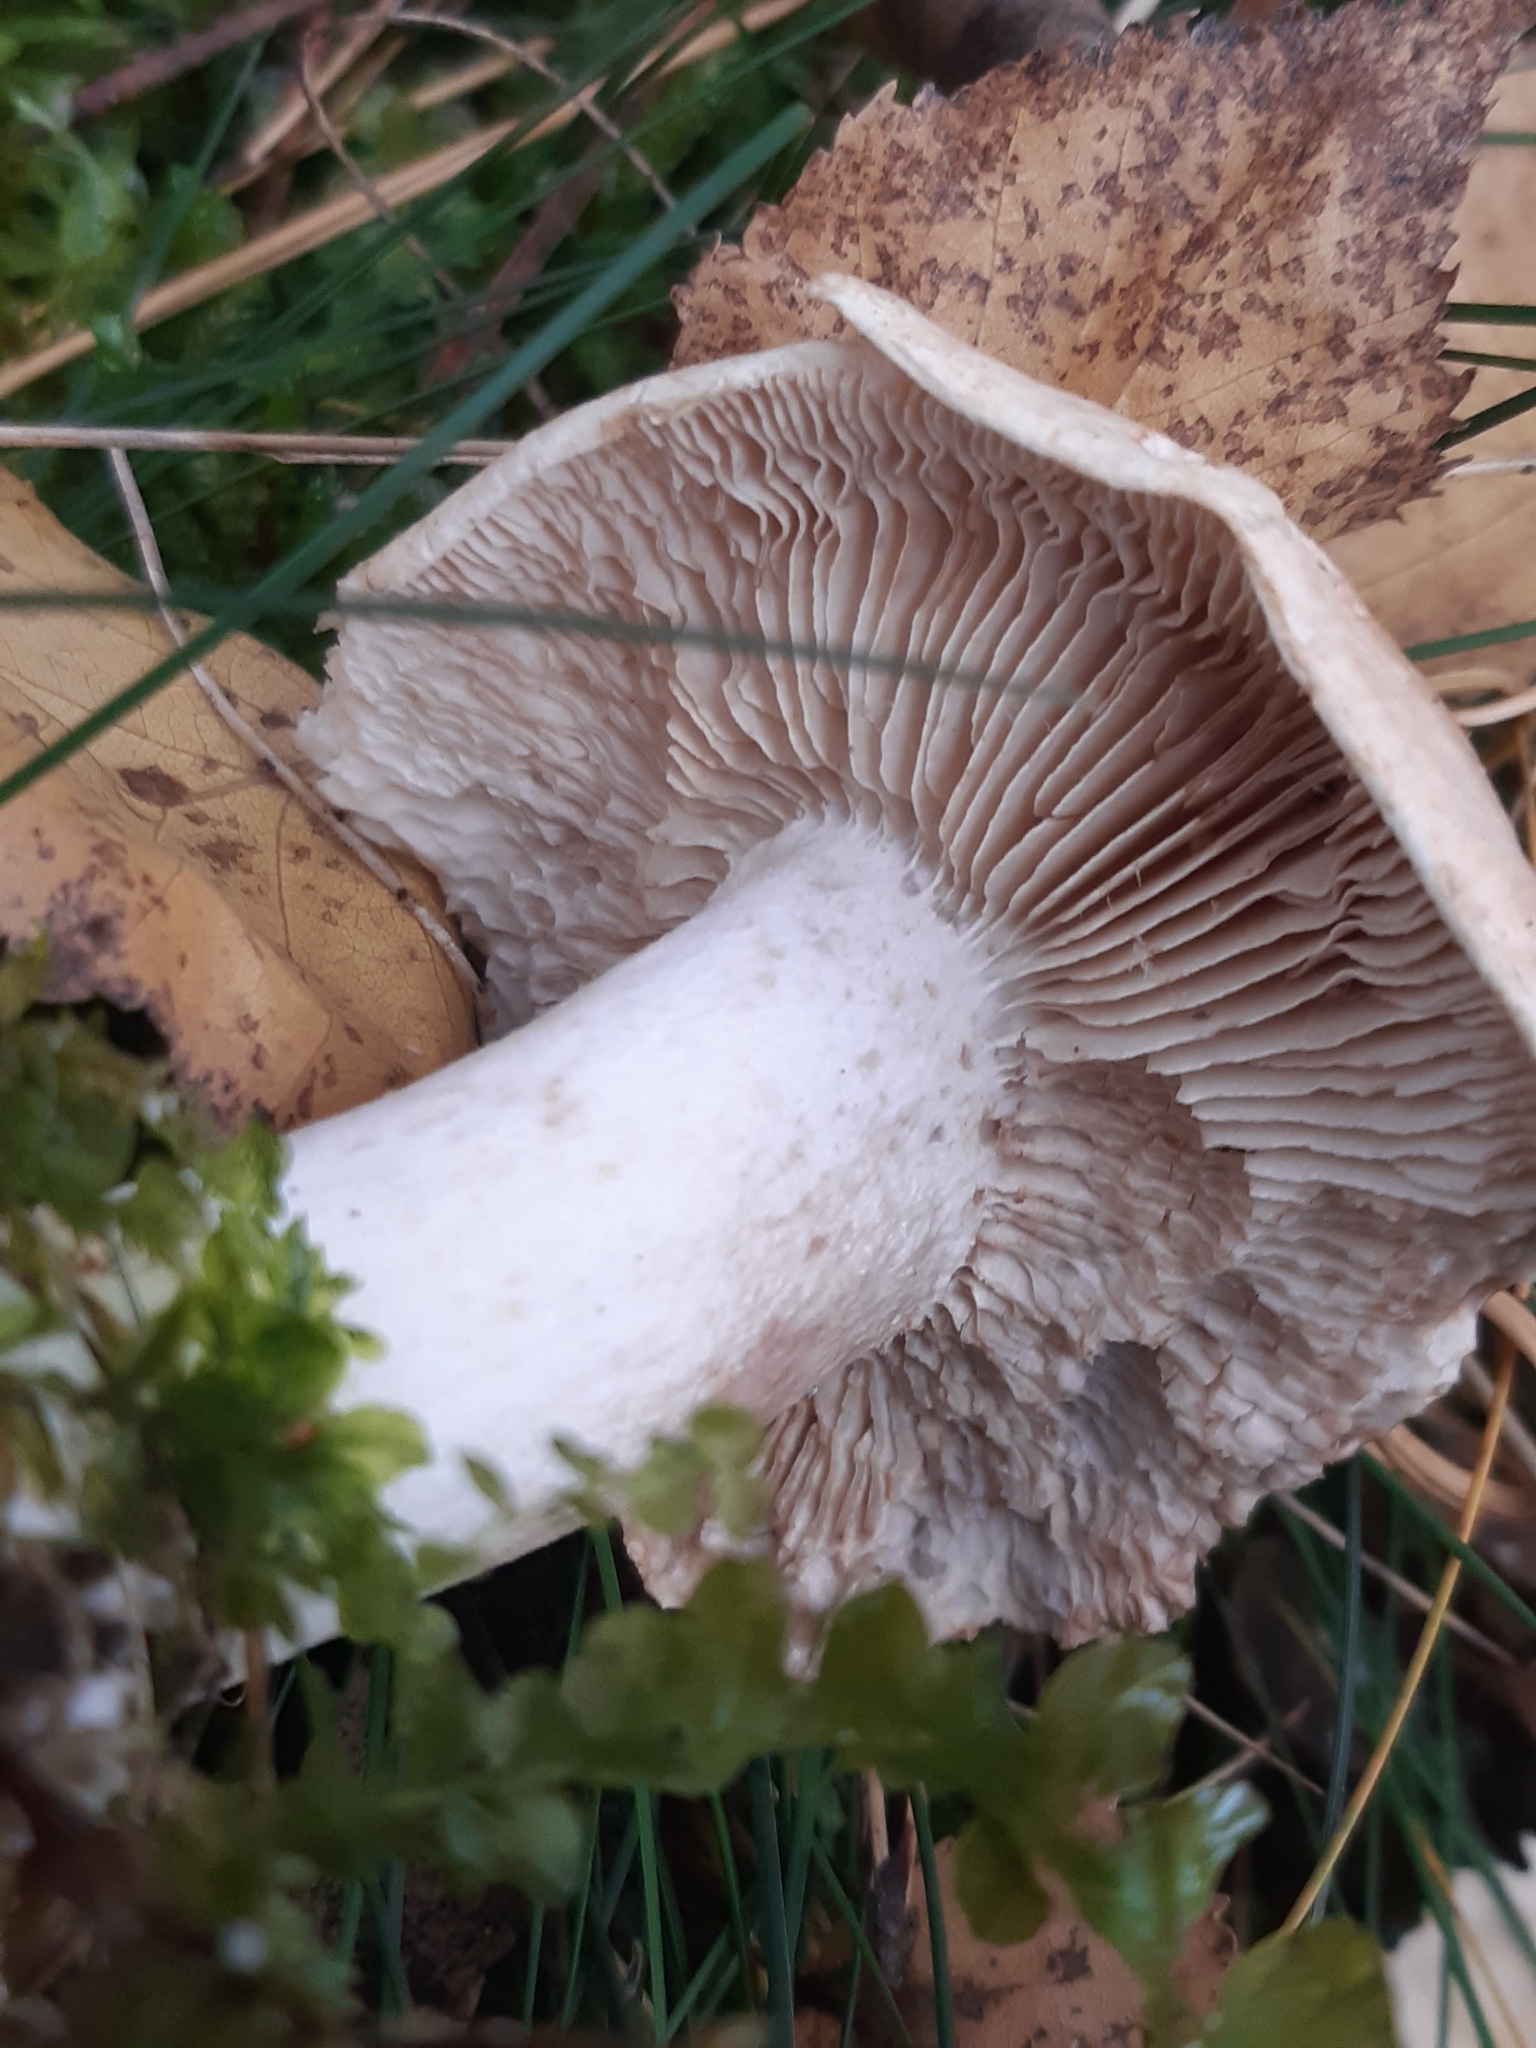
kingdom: Fungi
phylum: Basidiomycota
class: Agaricomycetes
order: Agaricales
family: Tricholomataceae
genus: Lepista
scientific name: Lepista glaucocana
